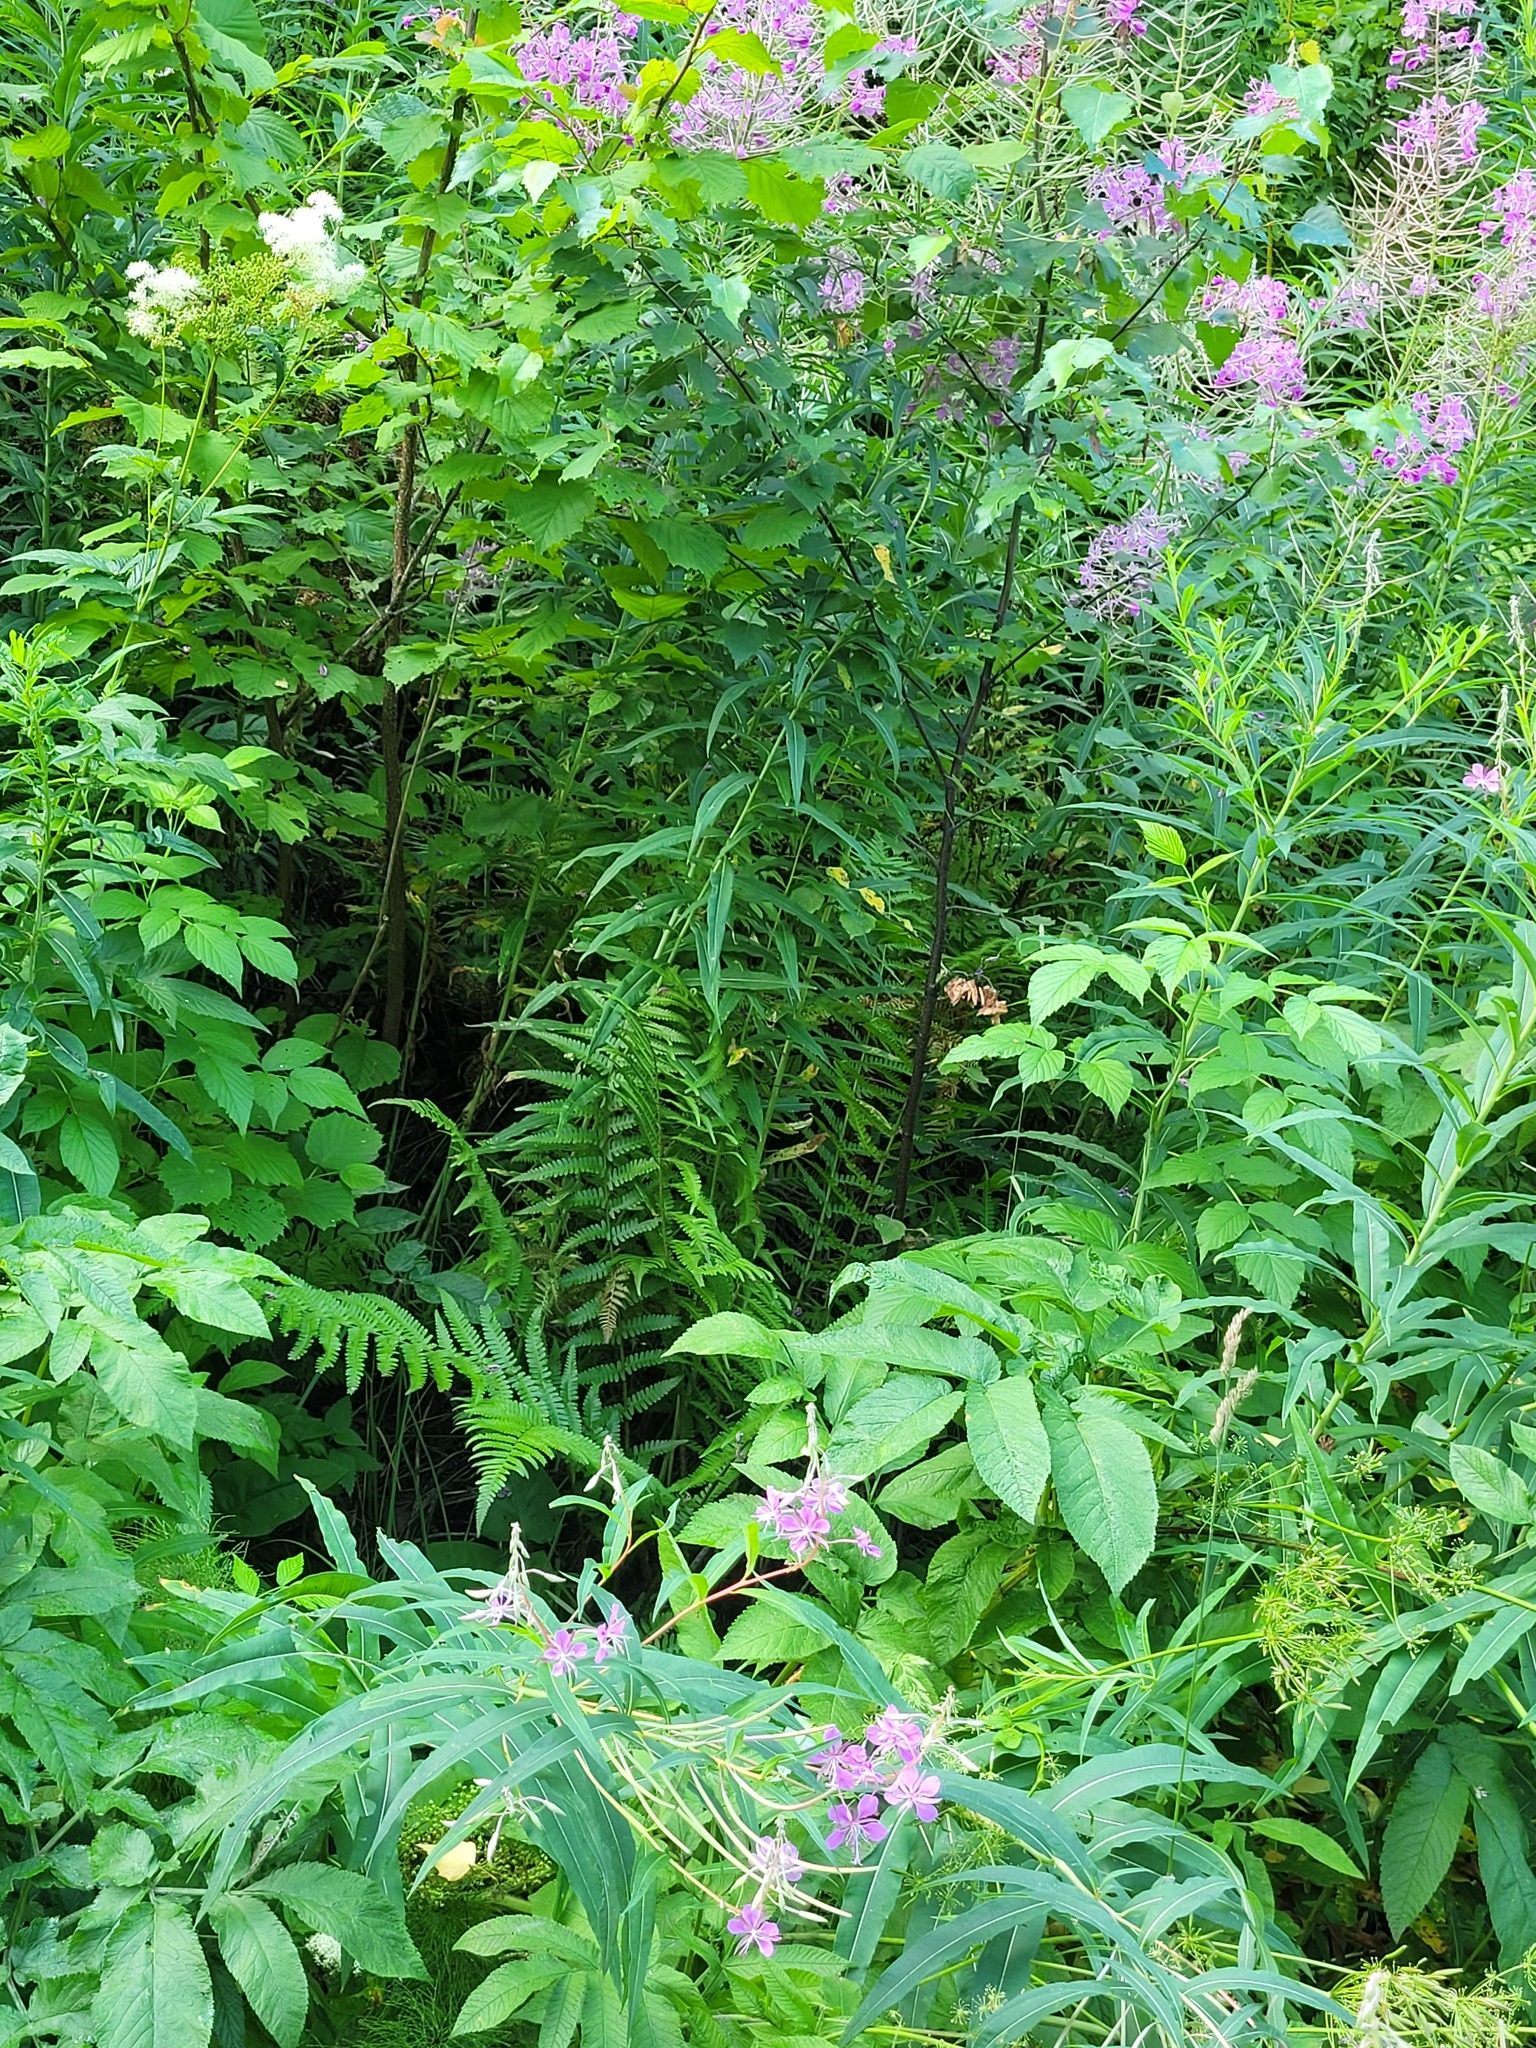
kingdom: Plantae
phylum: Tracheophyta
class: Polypodiopsida
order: Polypodiales
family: Dryopteridaceae
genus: Dryopteris
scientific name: Dryopteris filix-mas
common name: Male fern
